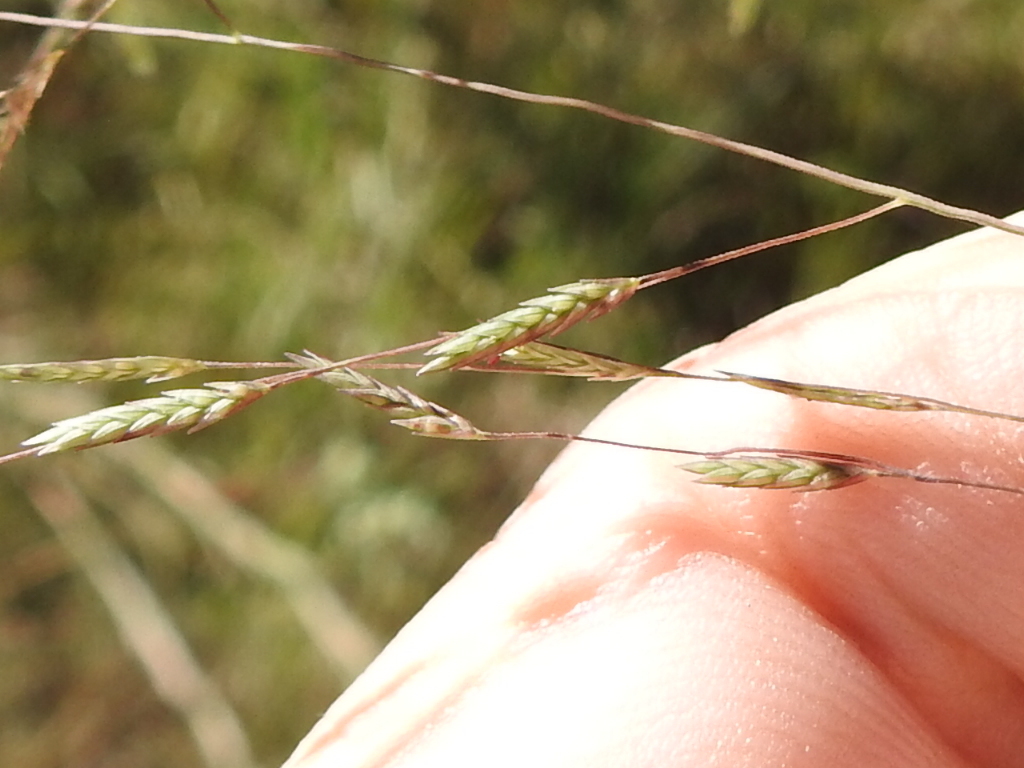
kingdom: Plantae
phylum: Tracheophyta
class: Liliopsida
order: Poales
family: Poaceae
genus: Eragrostis
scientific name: Eragrostis refracta
